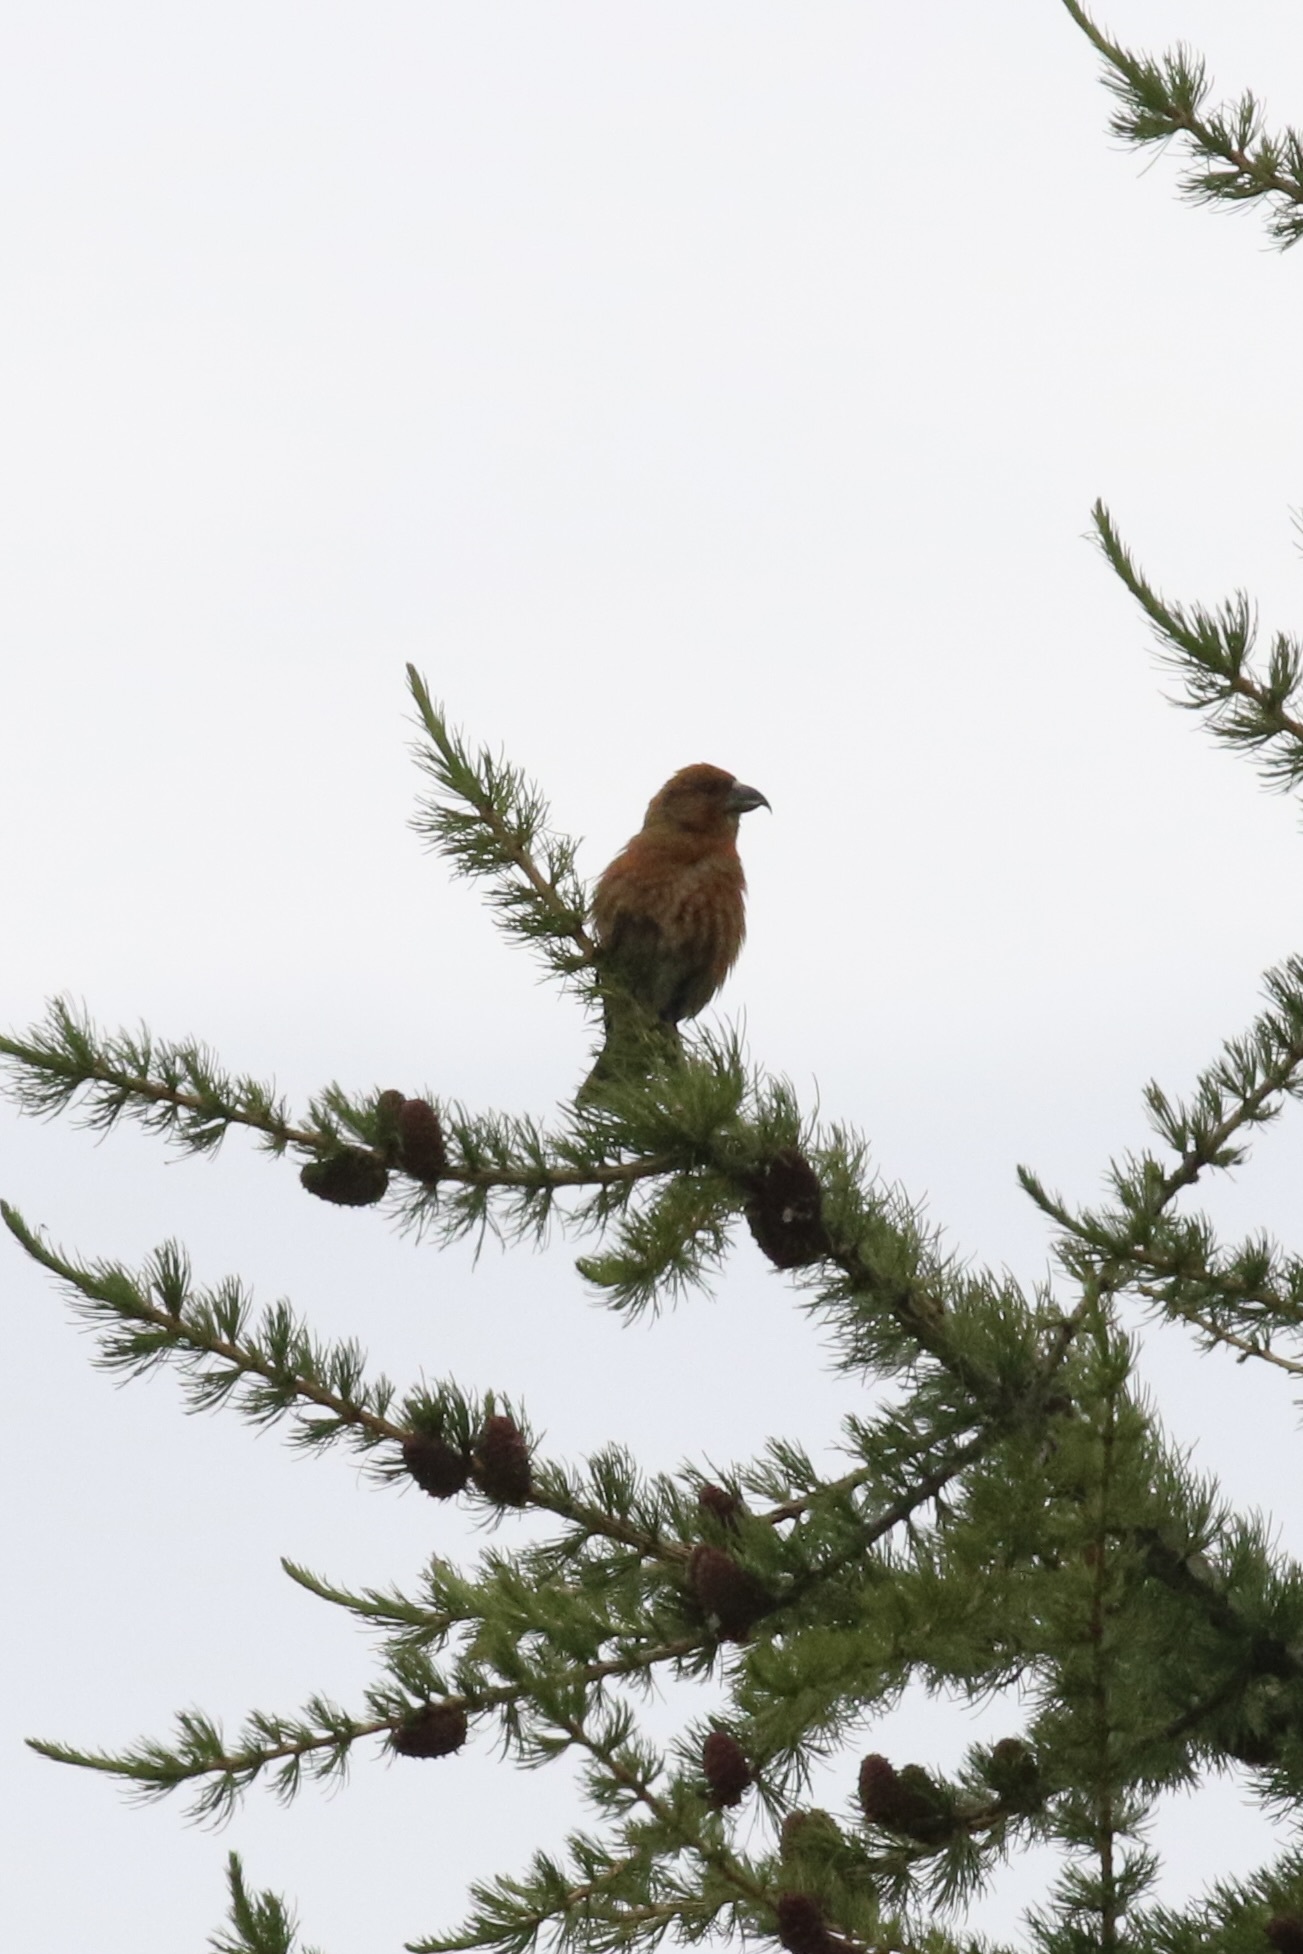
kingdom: Animalia
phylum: Chordata
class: Aves
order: Passeriformes
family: Fringillidae
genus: Loxia
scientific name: Loxia curvirostra
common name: Red crossbill
